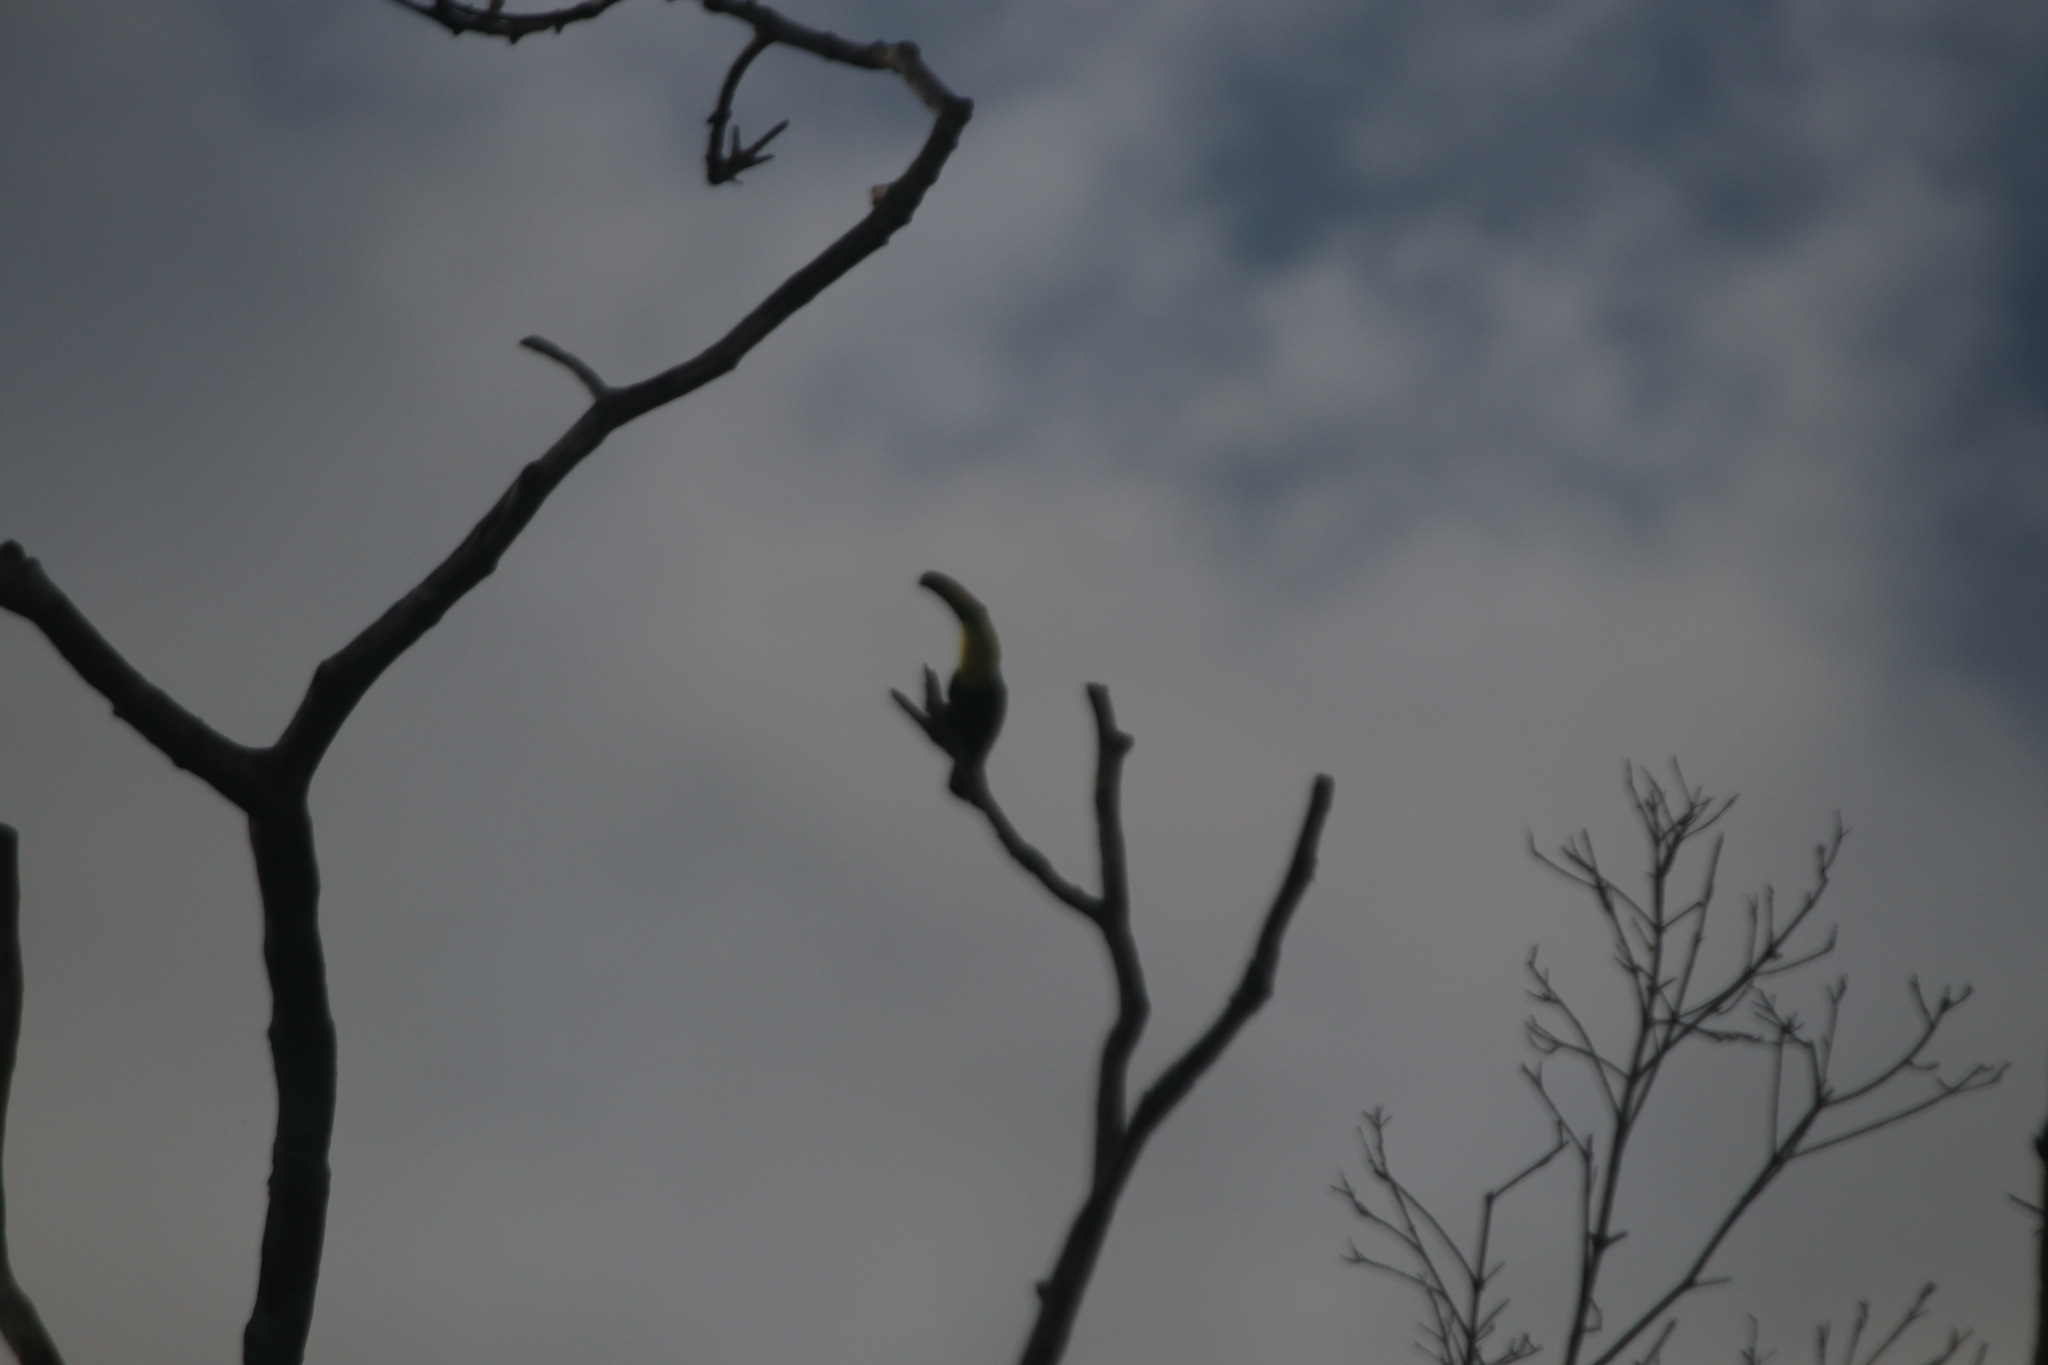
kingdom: Animalia
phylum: Chordata
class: Aves
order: Piciformes
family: Ramphastidae
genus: Ramphastos
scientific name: Ramphastos sulfuratus
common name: Keel-billed toucan
